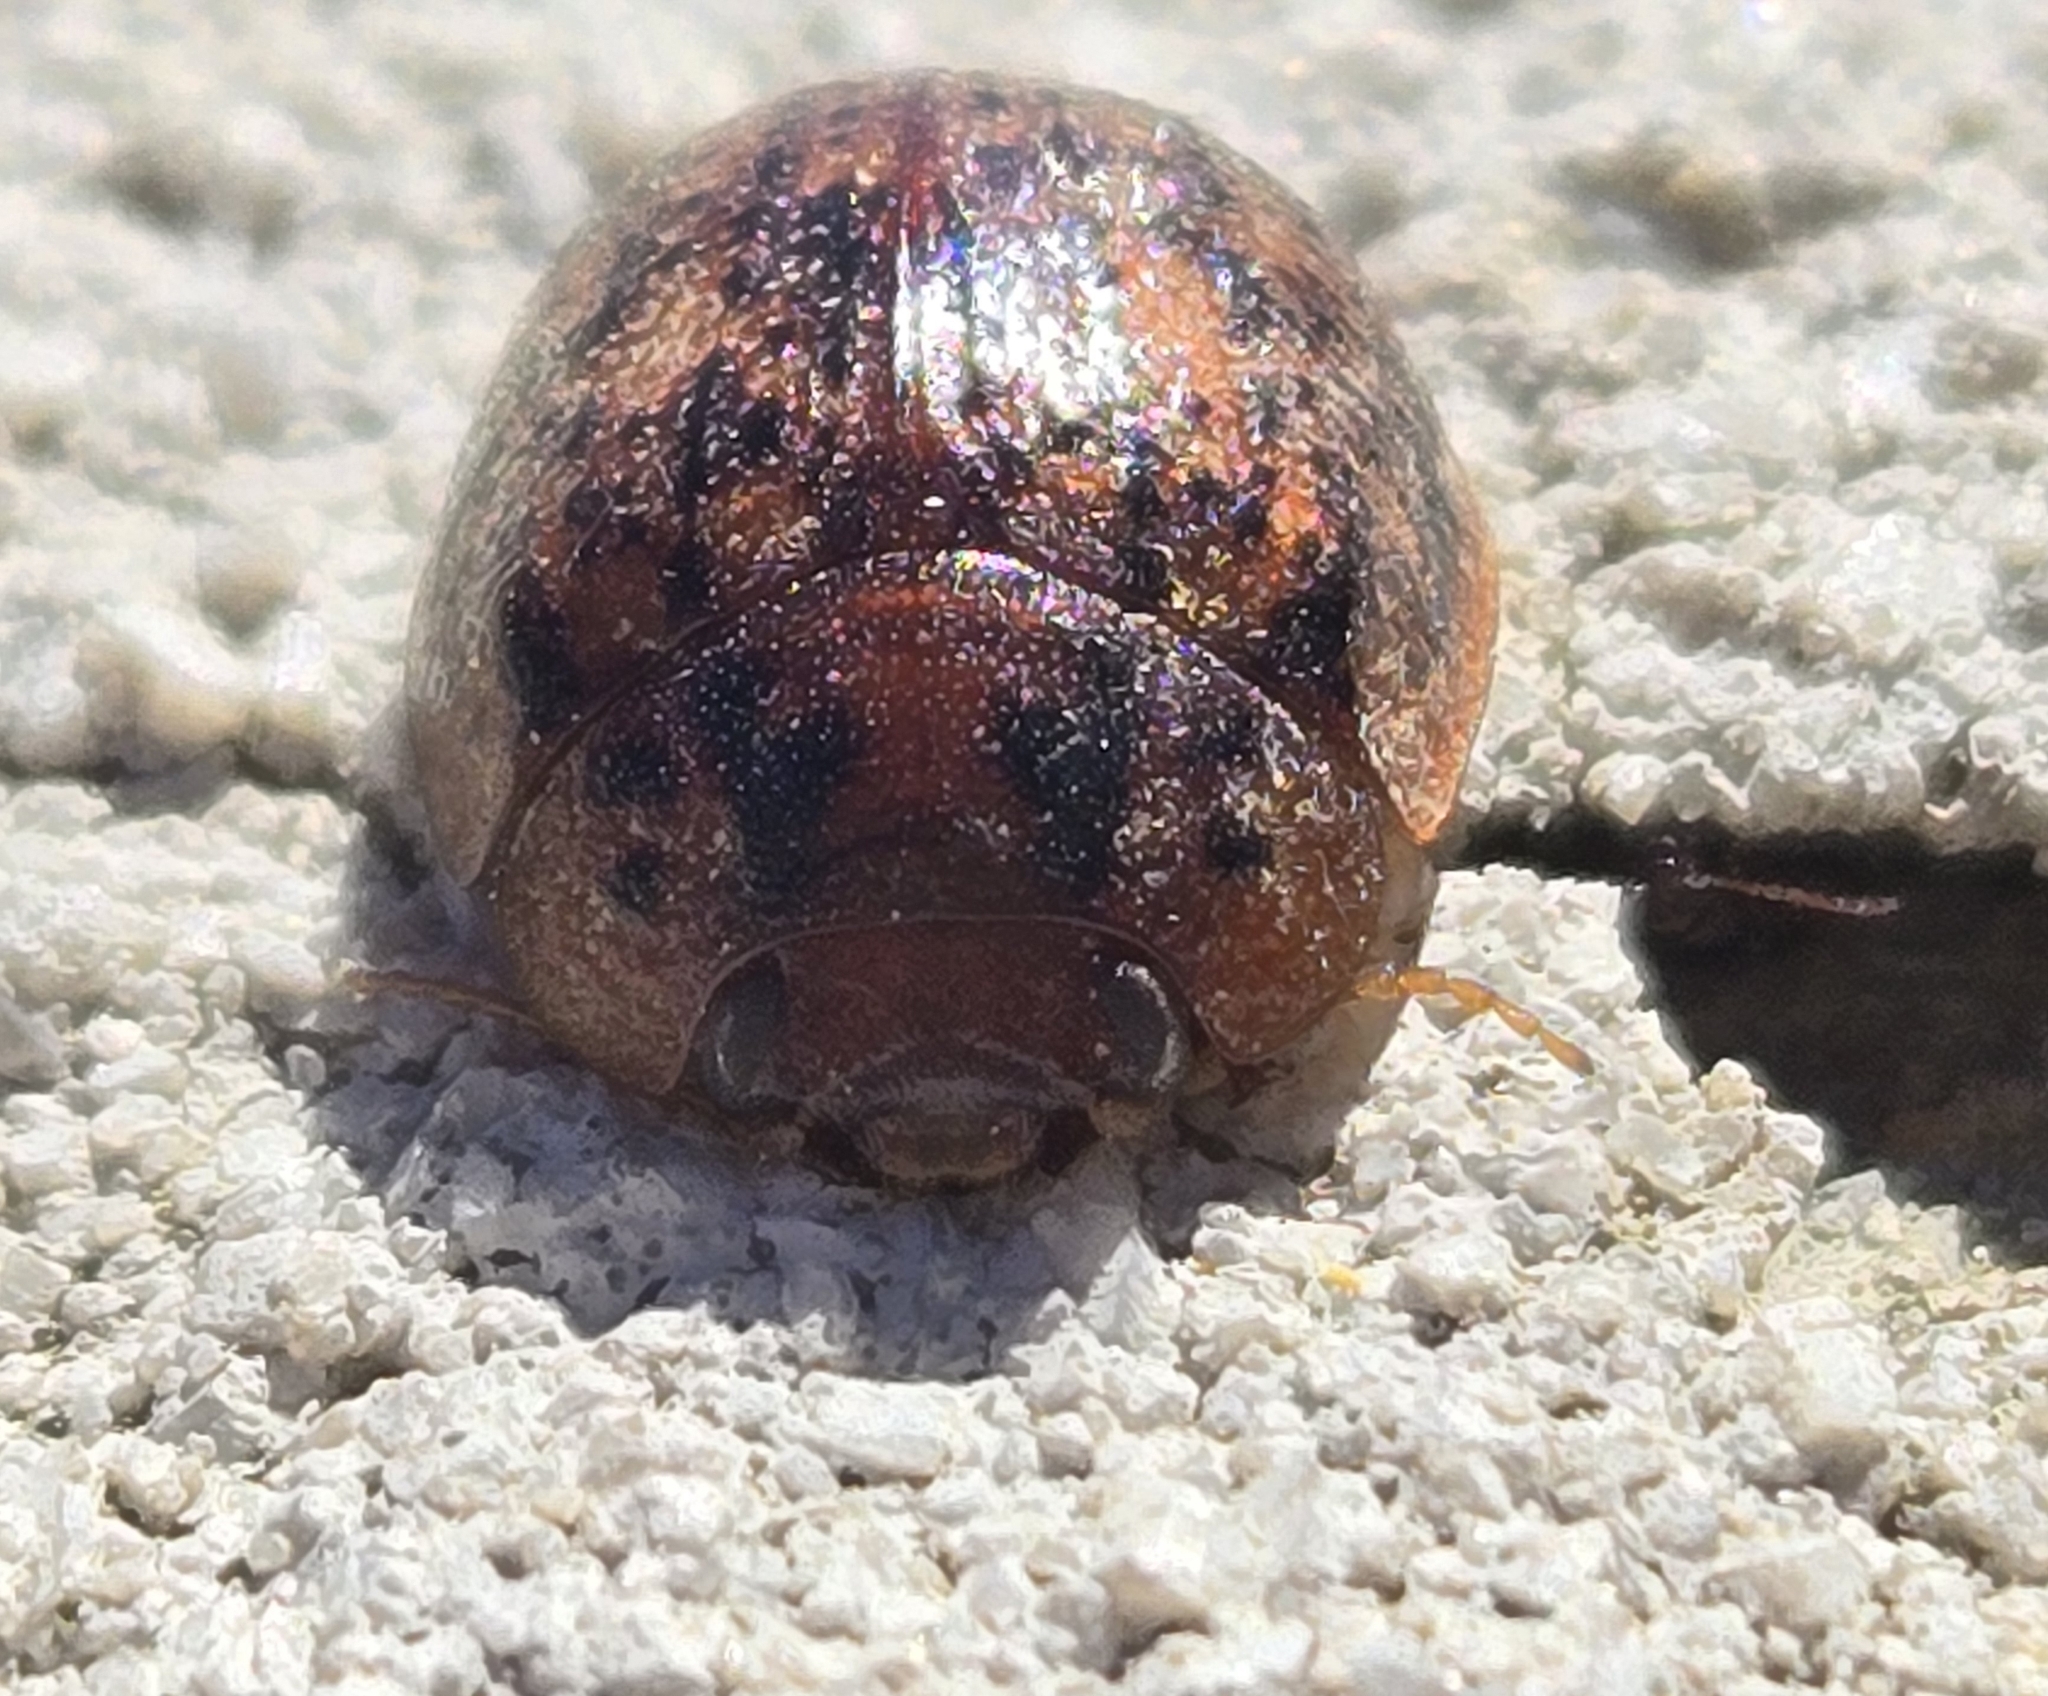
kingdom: Animalia
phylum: Arthropoda
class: Insecta
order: Coleoptera
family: Chrysomelidae
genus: Trachymela
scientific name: Trachymela sloanei
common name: Australian tortoise beetle
